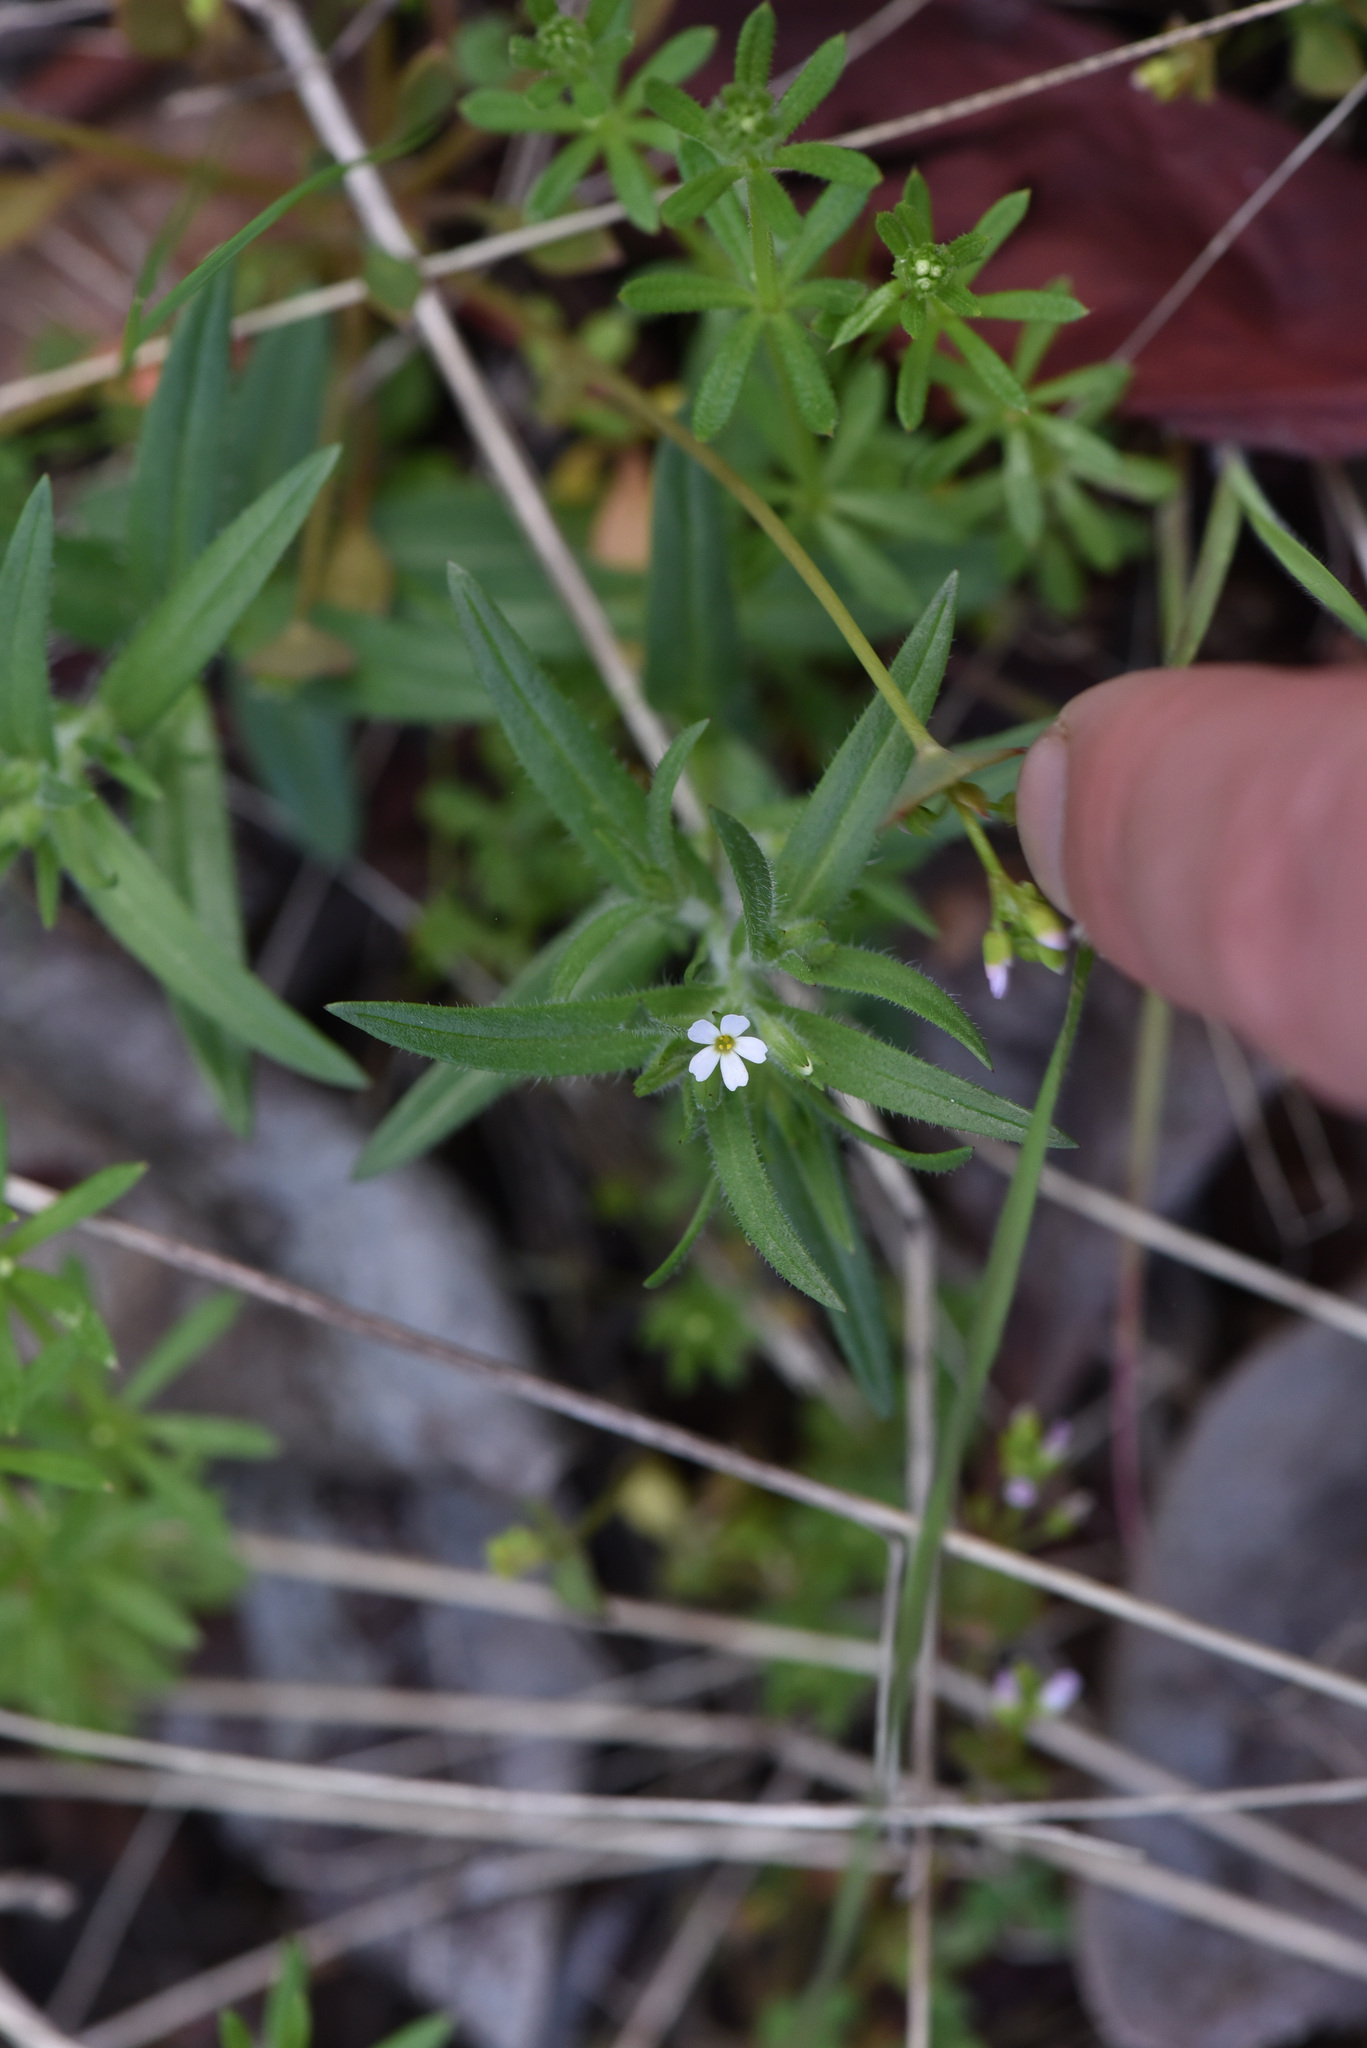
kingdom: Plantae
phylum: Tracheophyta
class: Magnoliopsida
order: Ericales
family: Polemoniaceae
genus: Phlox
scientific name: Phlox gracilis
